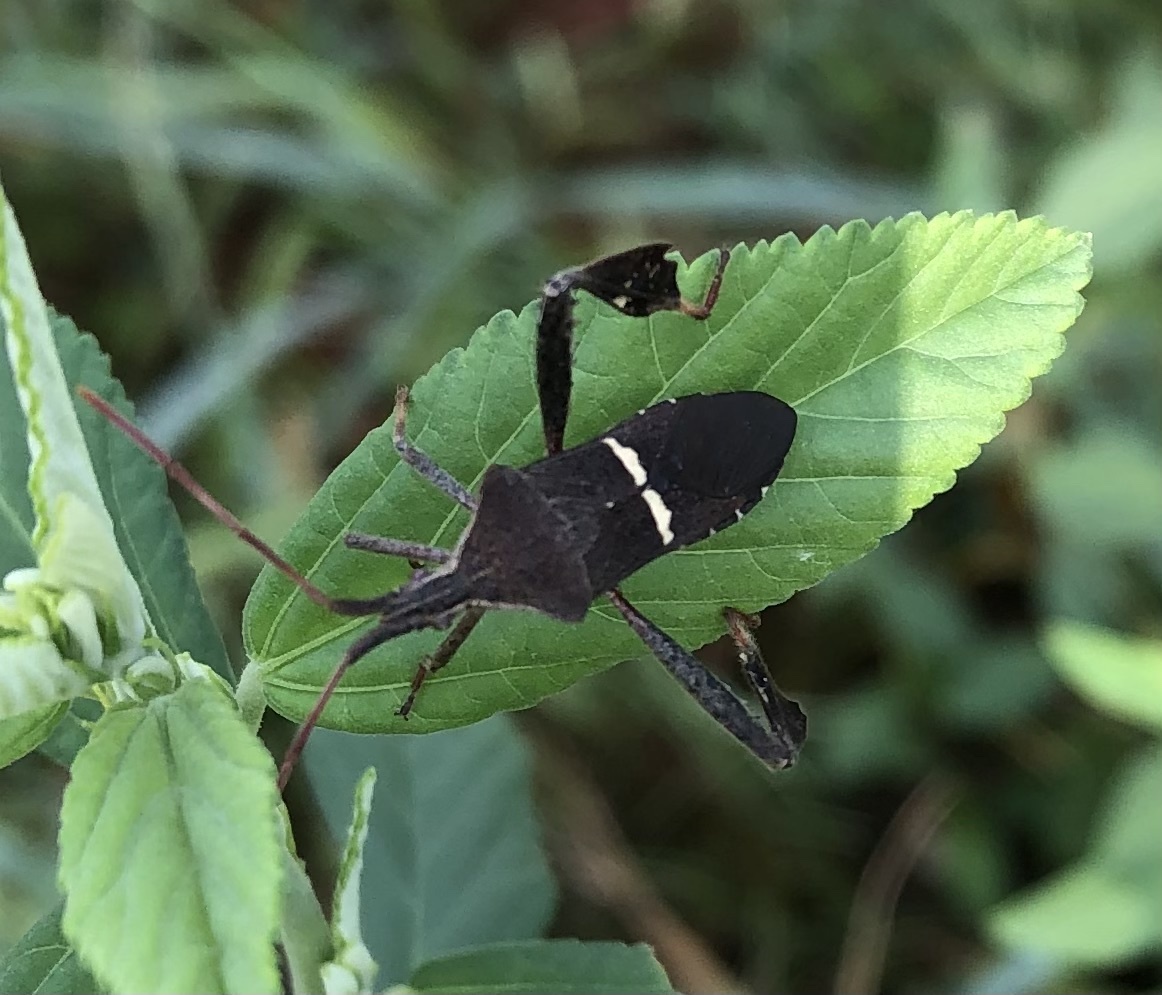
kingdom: Animalia
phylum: Arthropoda
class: Insecta
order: Hemiptera
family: Coreidae
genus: Leptoglossus
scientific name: Leptoglossus phyllopus
